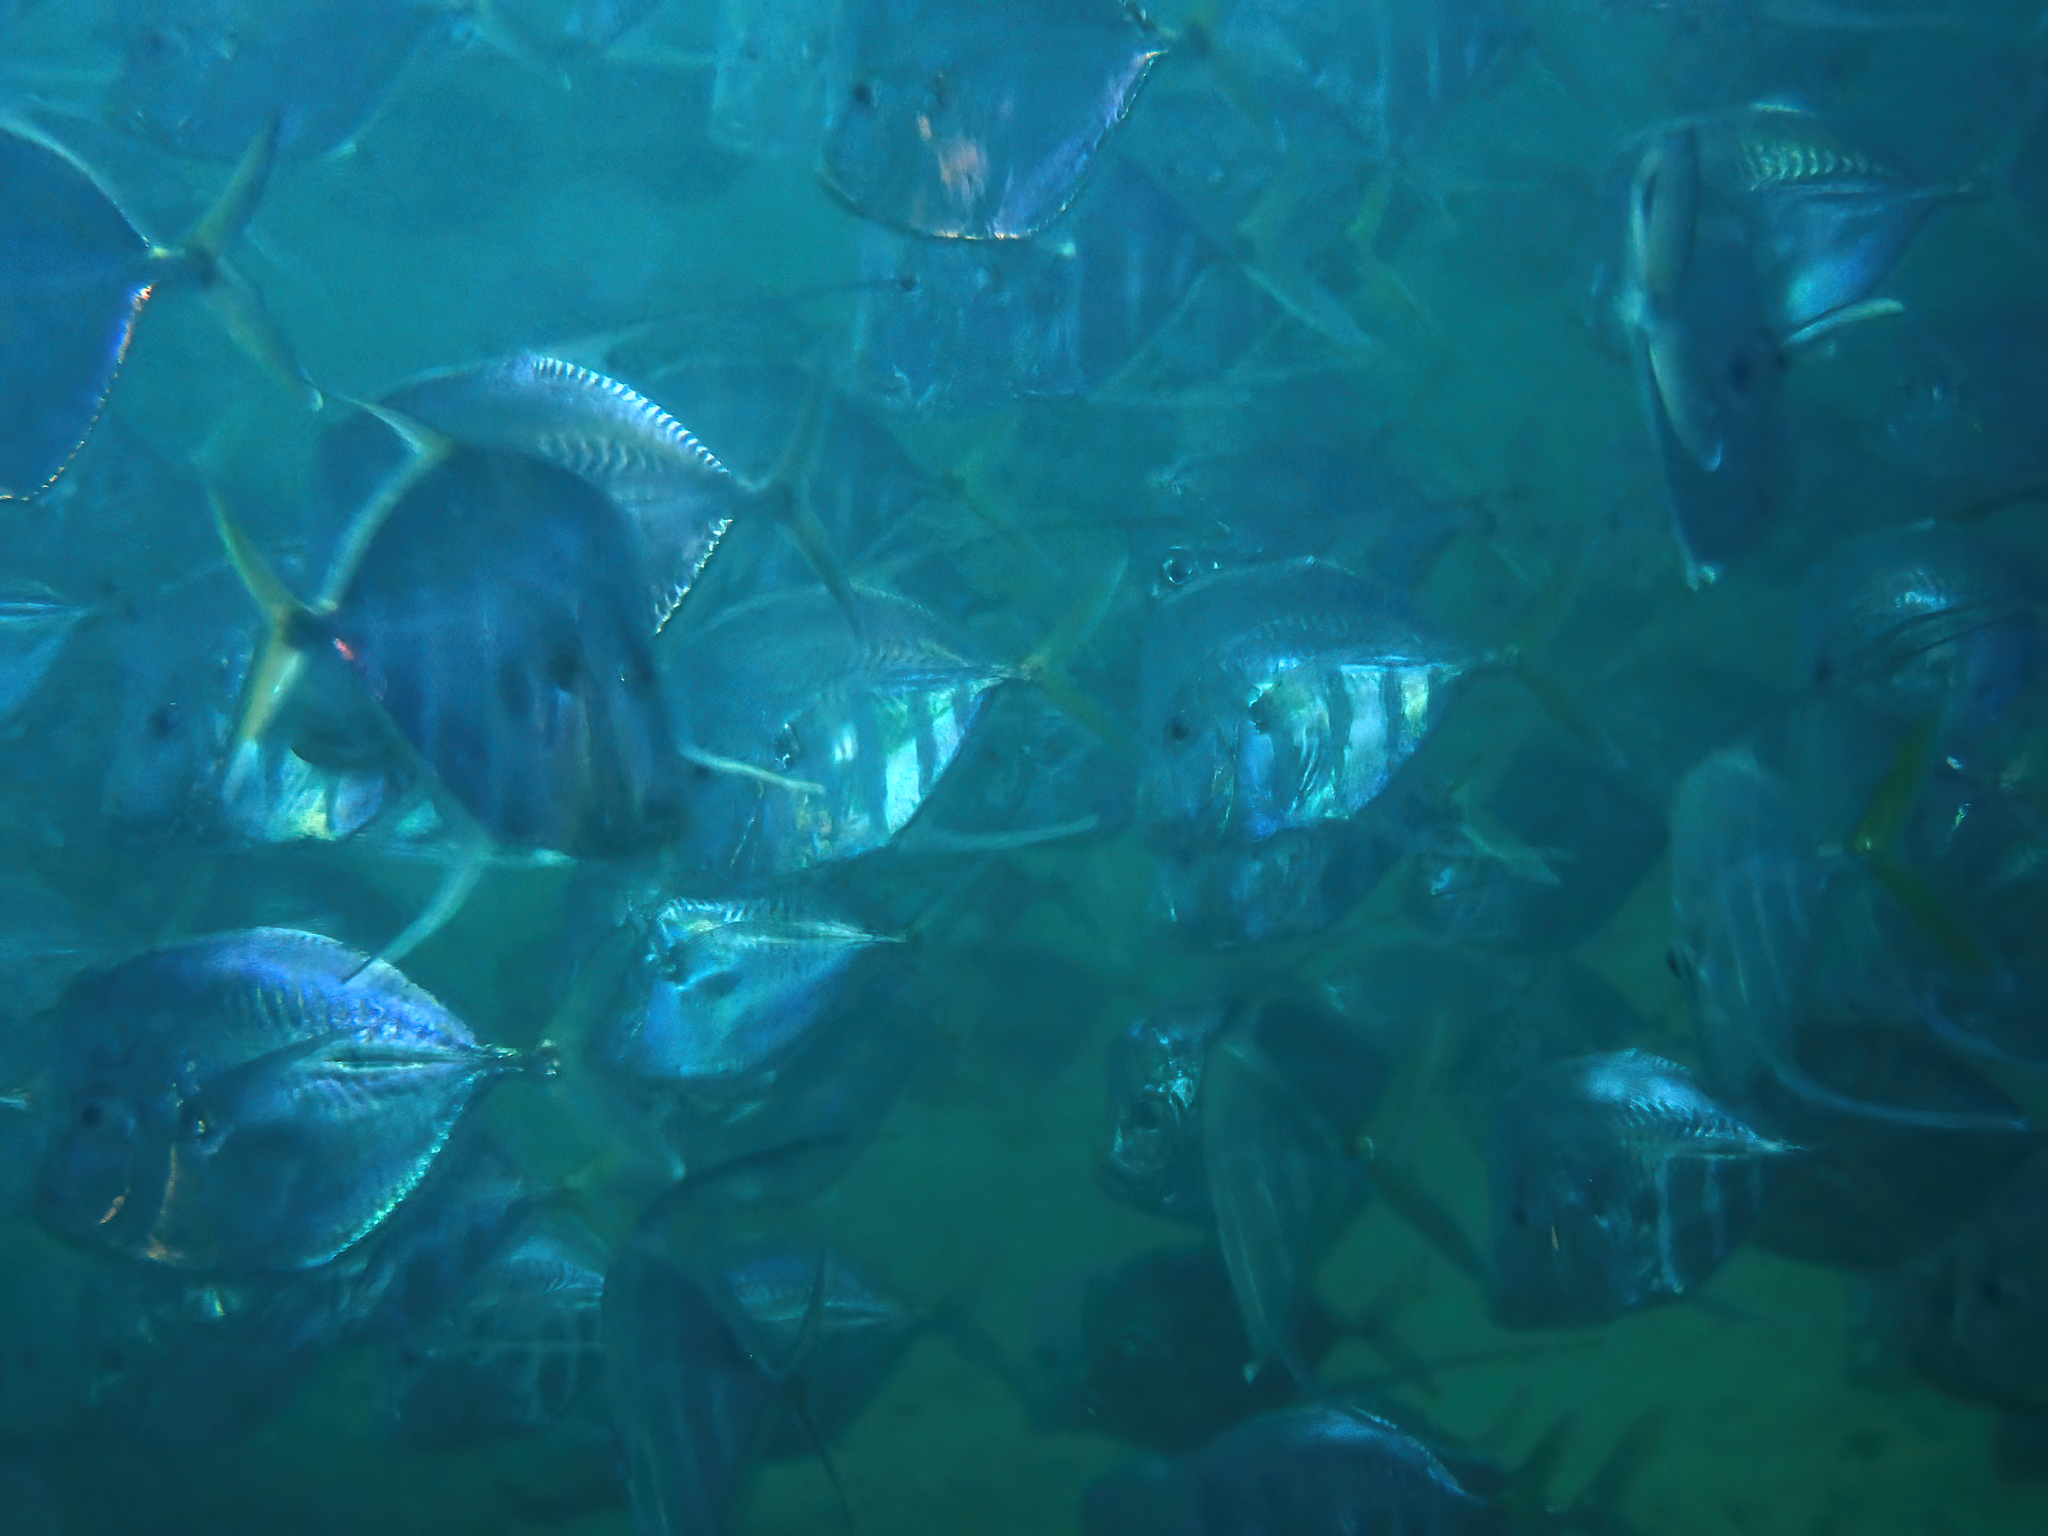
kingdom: Animalia
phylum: Chordata
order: Perciformes
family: Carangidae
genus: Selene
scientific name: Selene vomer
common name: Lookdown
